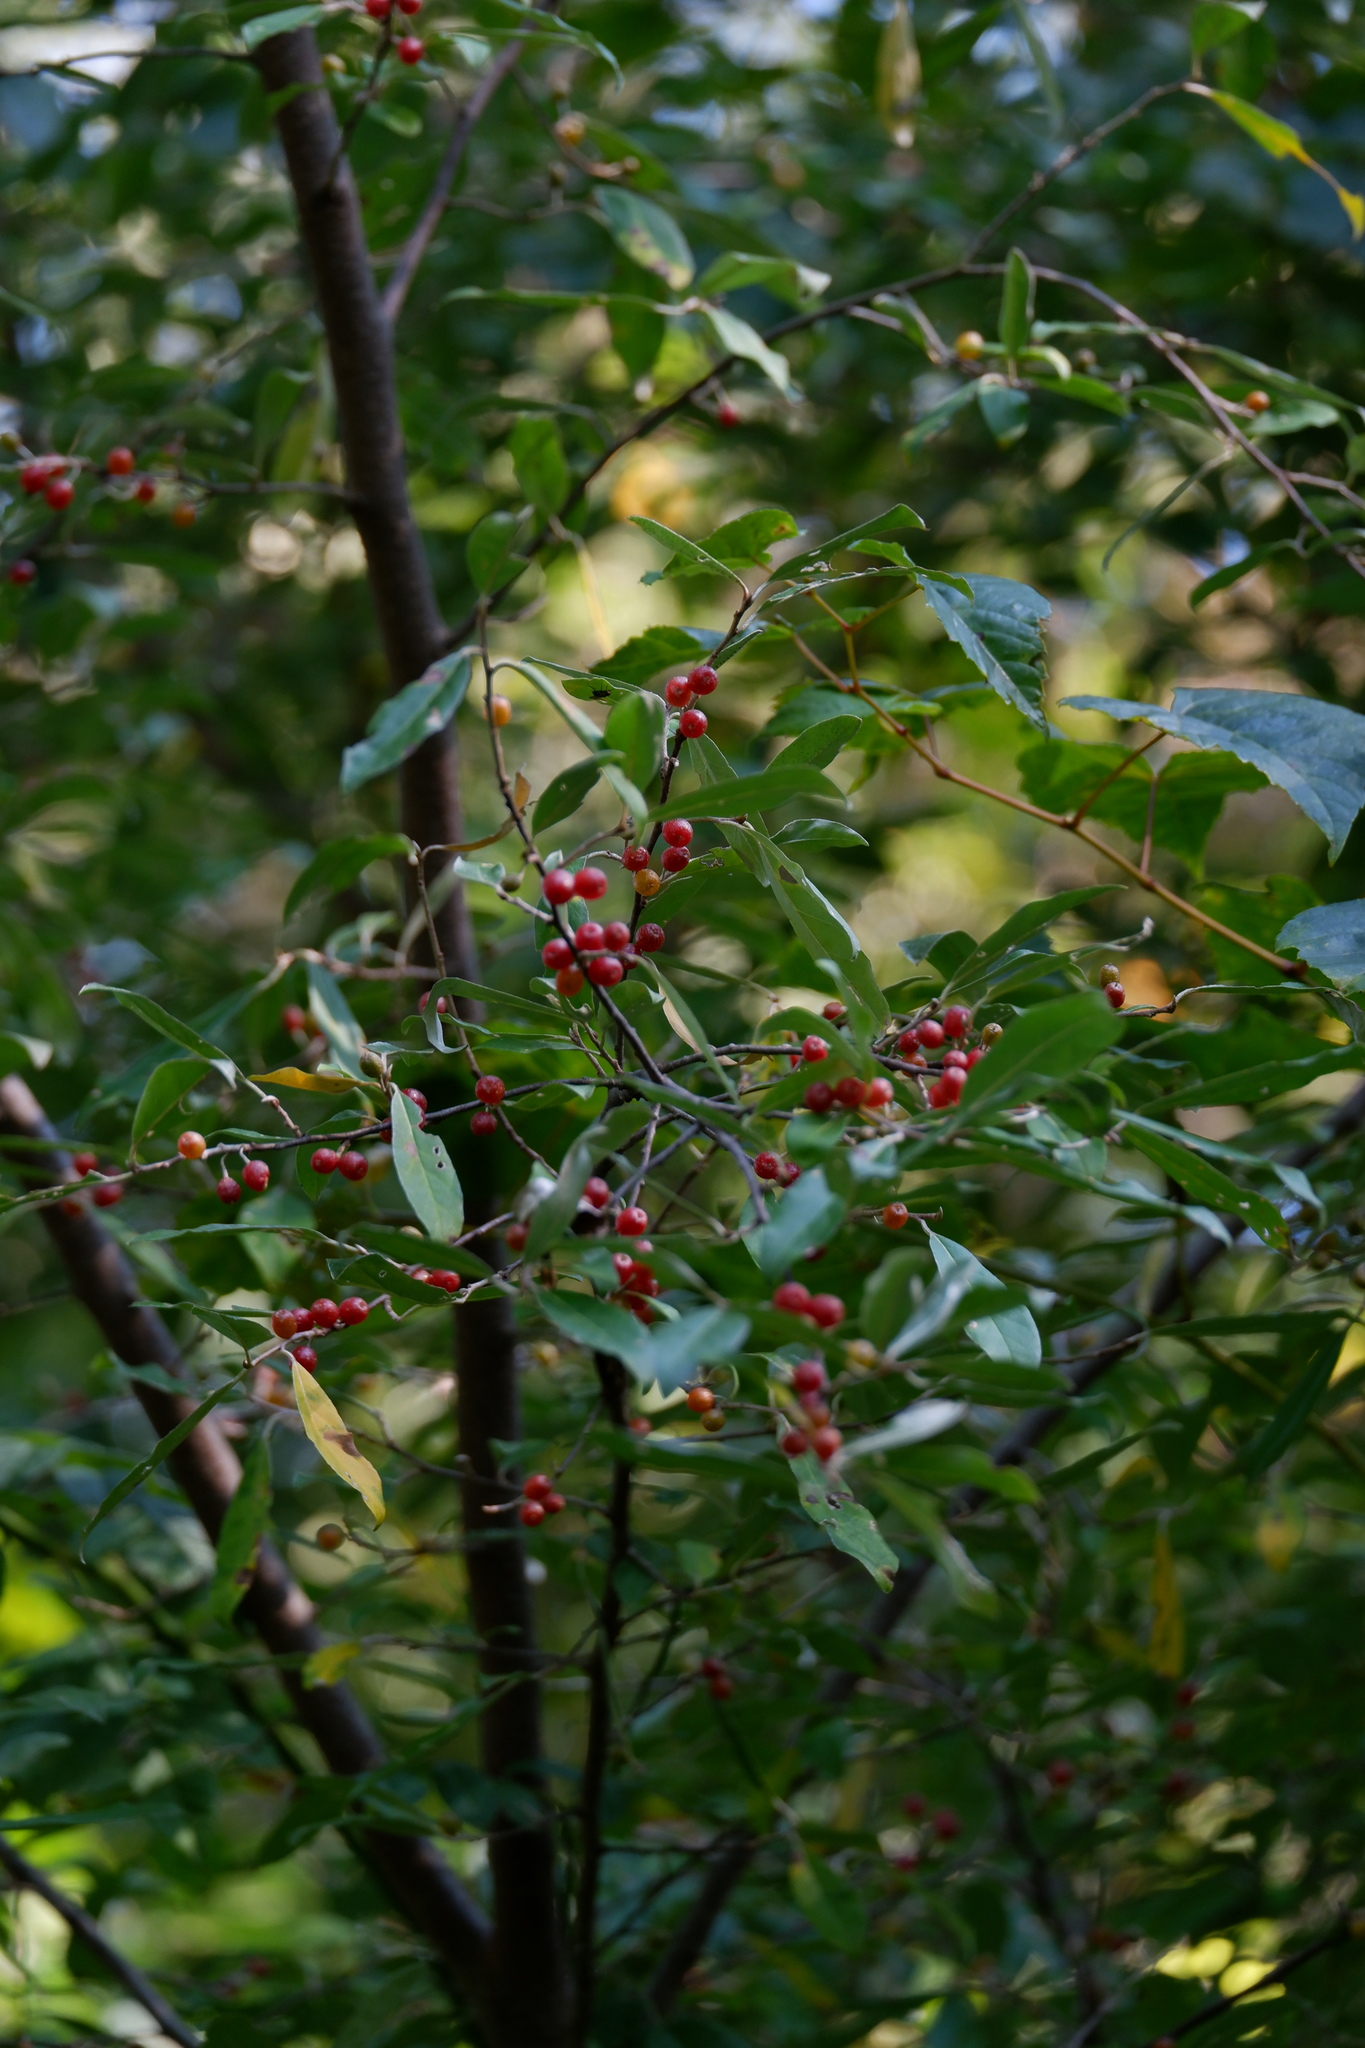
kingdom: Plantae
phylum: Tracheophyta
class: Magnoliopsida
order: Rosales
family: Elaeagnaceae
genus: Elaeagnus
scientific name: Elaeagnus umbellata
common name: Autumn olive
